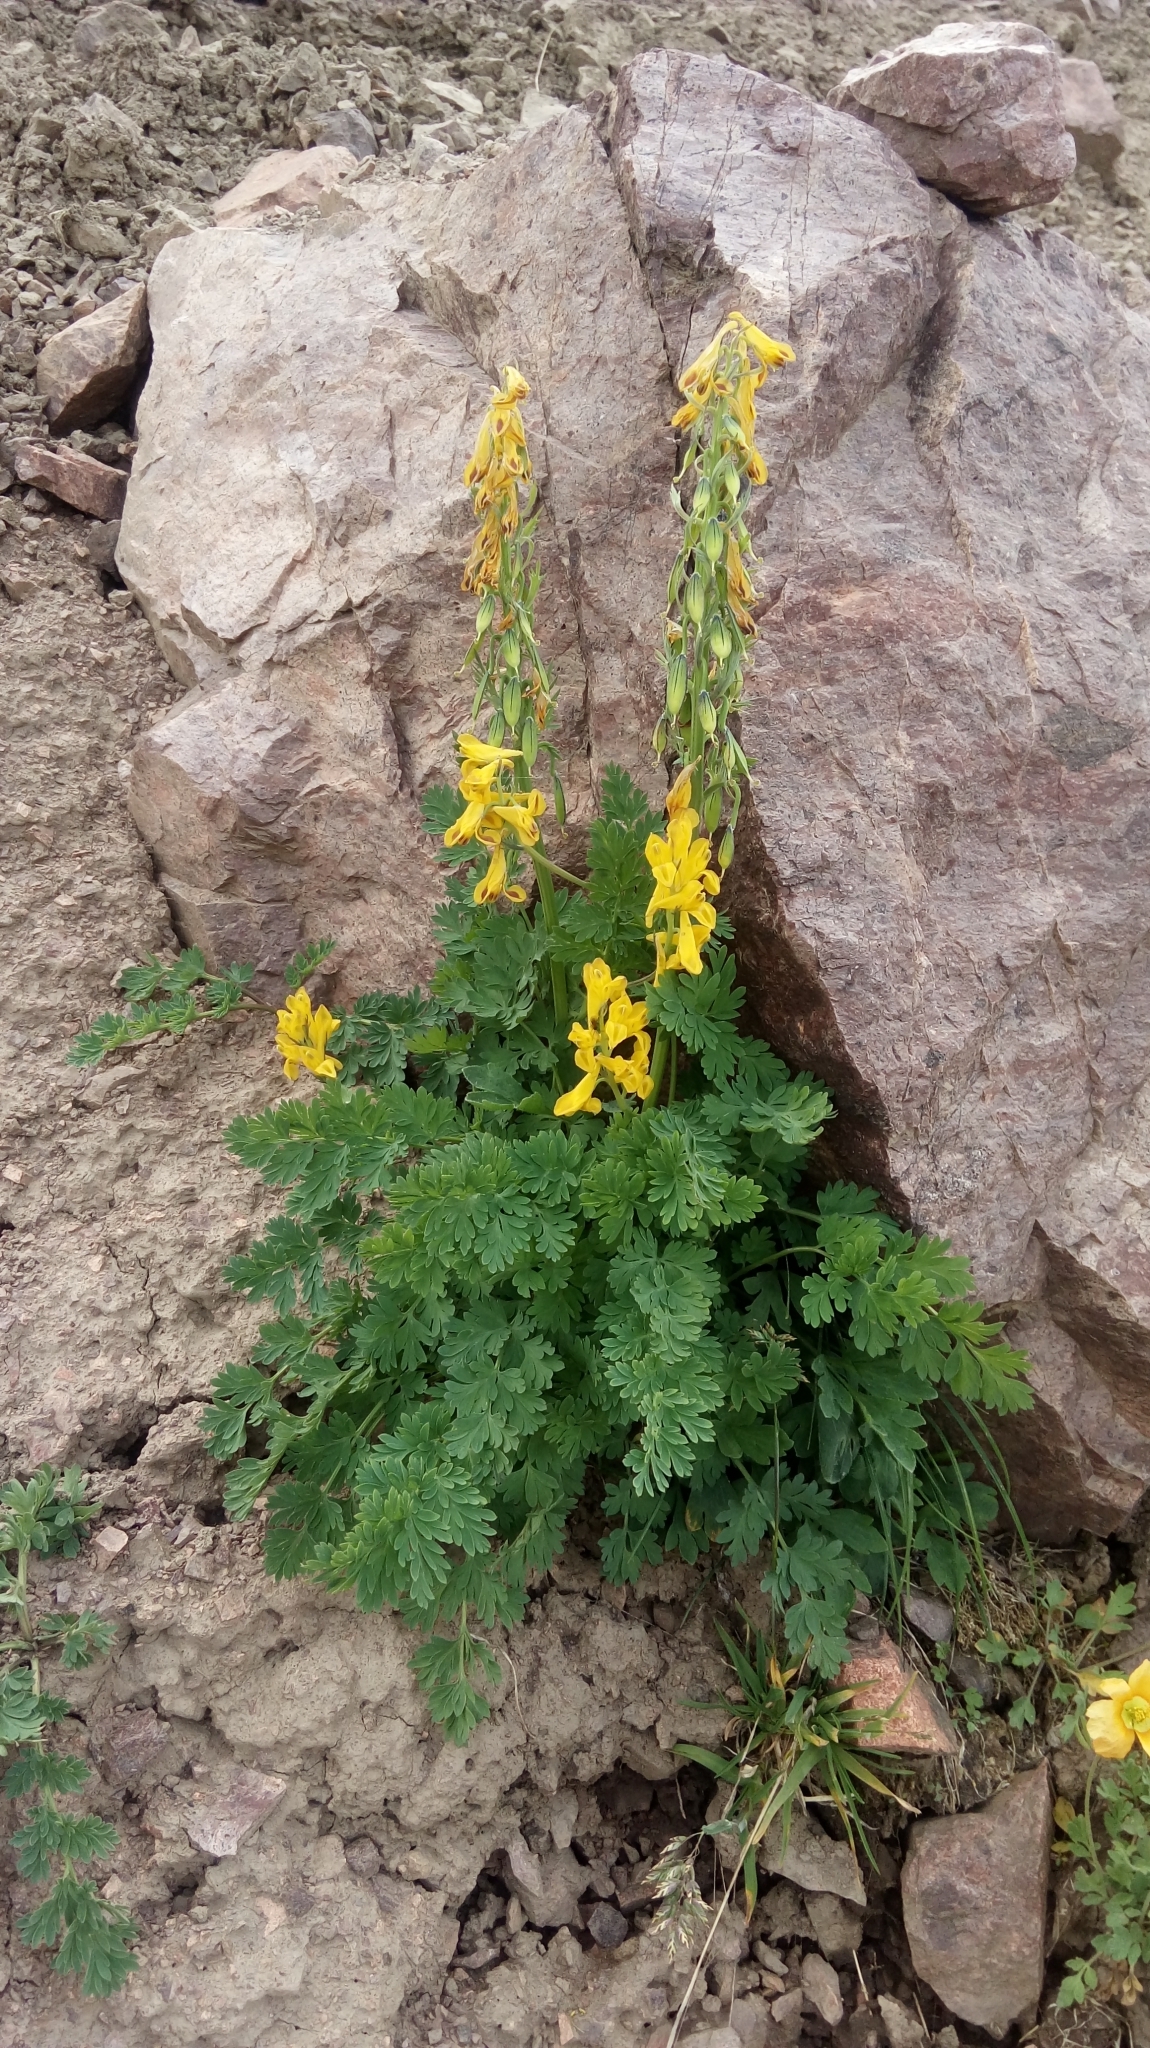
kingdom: Plantae
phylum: Tracheophyta
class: Magnoliopsida
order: Ranunculales
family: Papaveraceae
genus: Corydalis
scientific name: Corydalis gortschakovii
